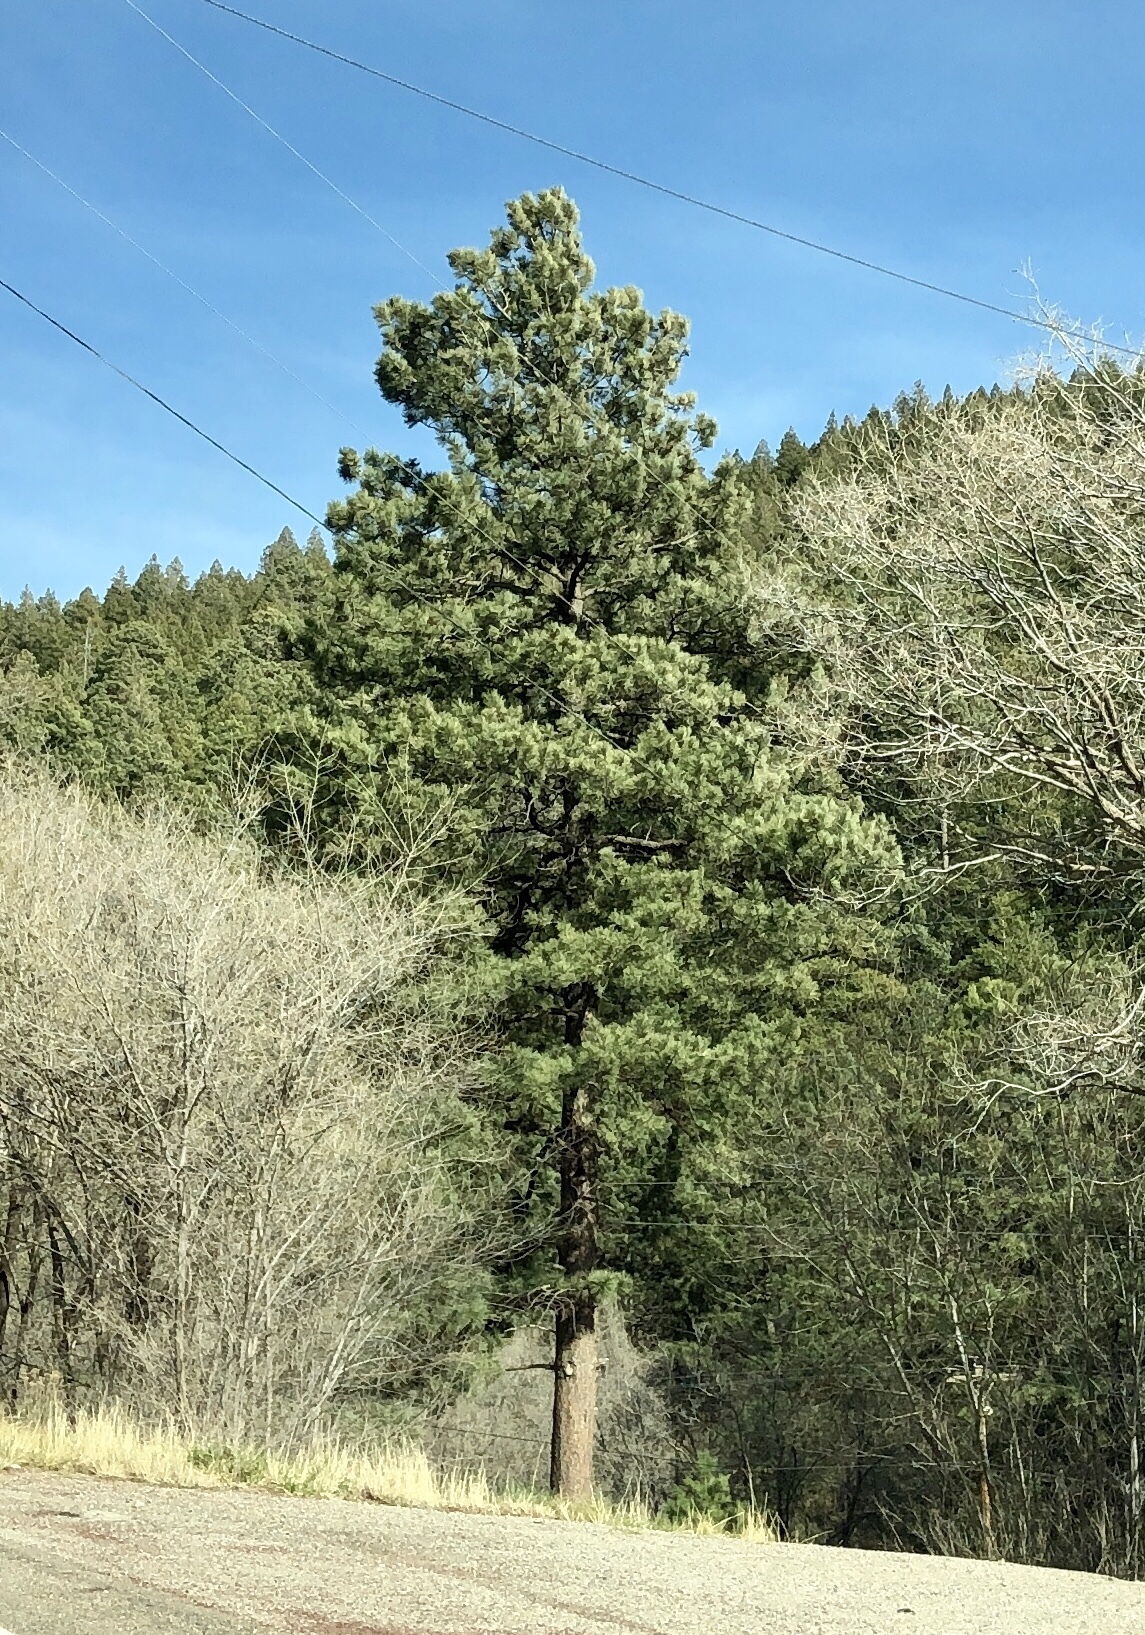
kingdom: Plantae
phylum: Tracheophyta
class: Pinopsida
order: Pinales
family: Pinaceae
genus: Pinus
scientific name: Pinus ponderosa
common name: Western yellow-pine
